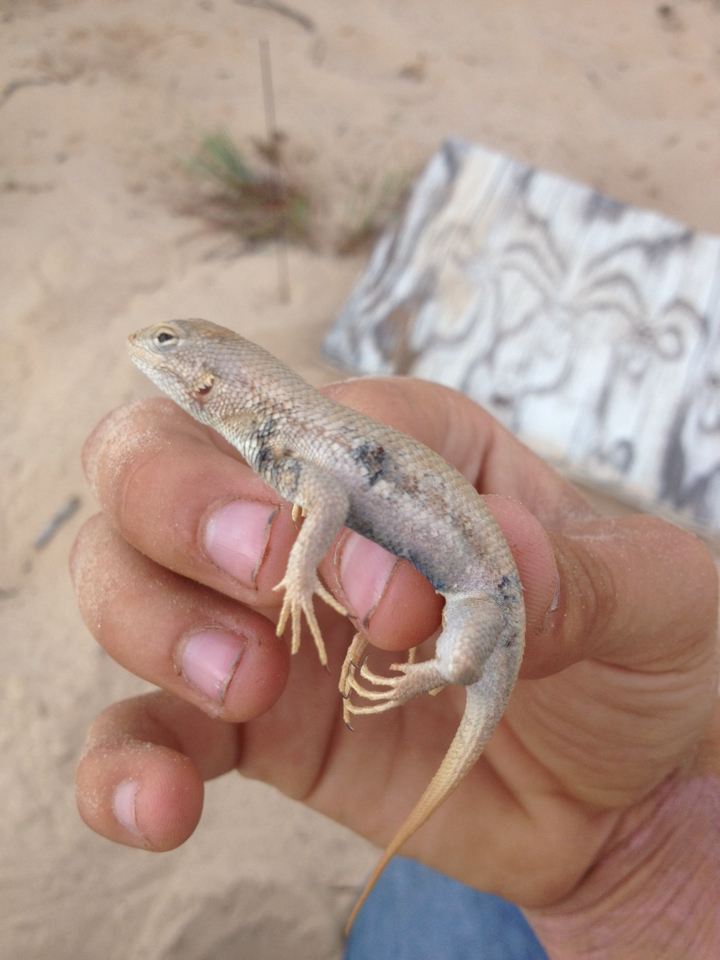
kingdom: Animalia
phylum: Chordata
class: Squamata
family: Phrynosomatidae
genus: Sceloporus
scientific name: Sceloporus arenicolus
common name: Dunes sagebrush lizard
